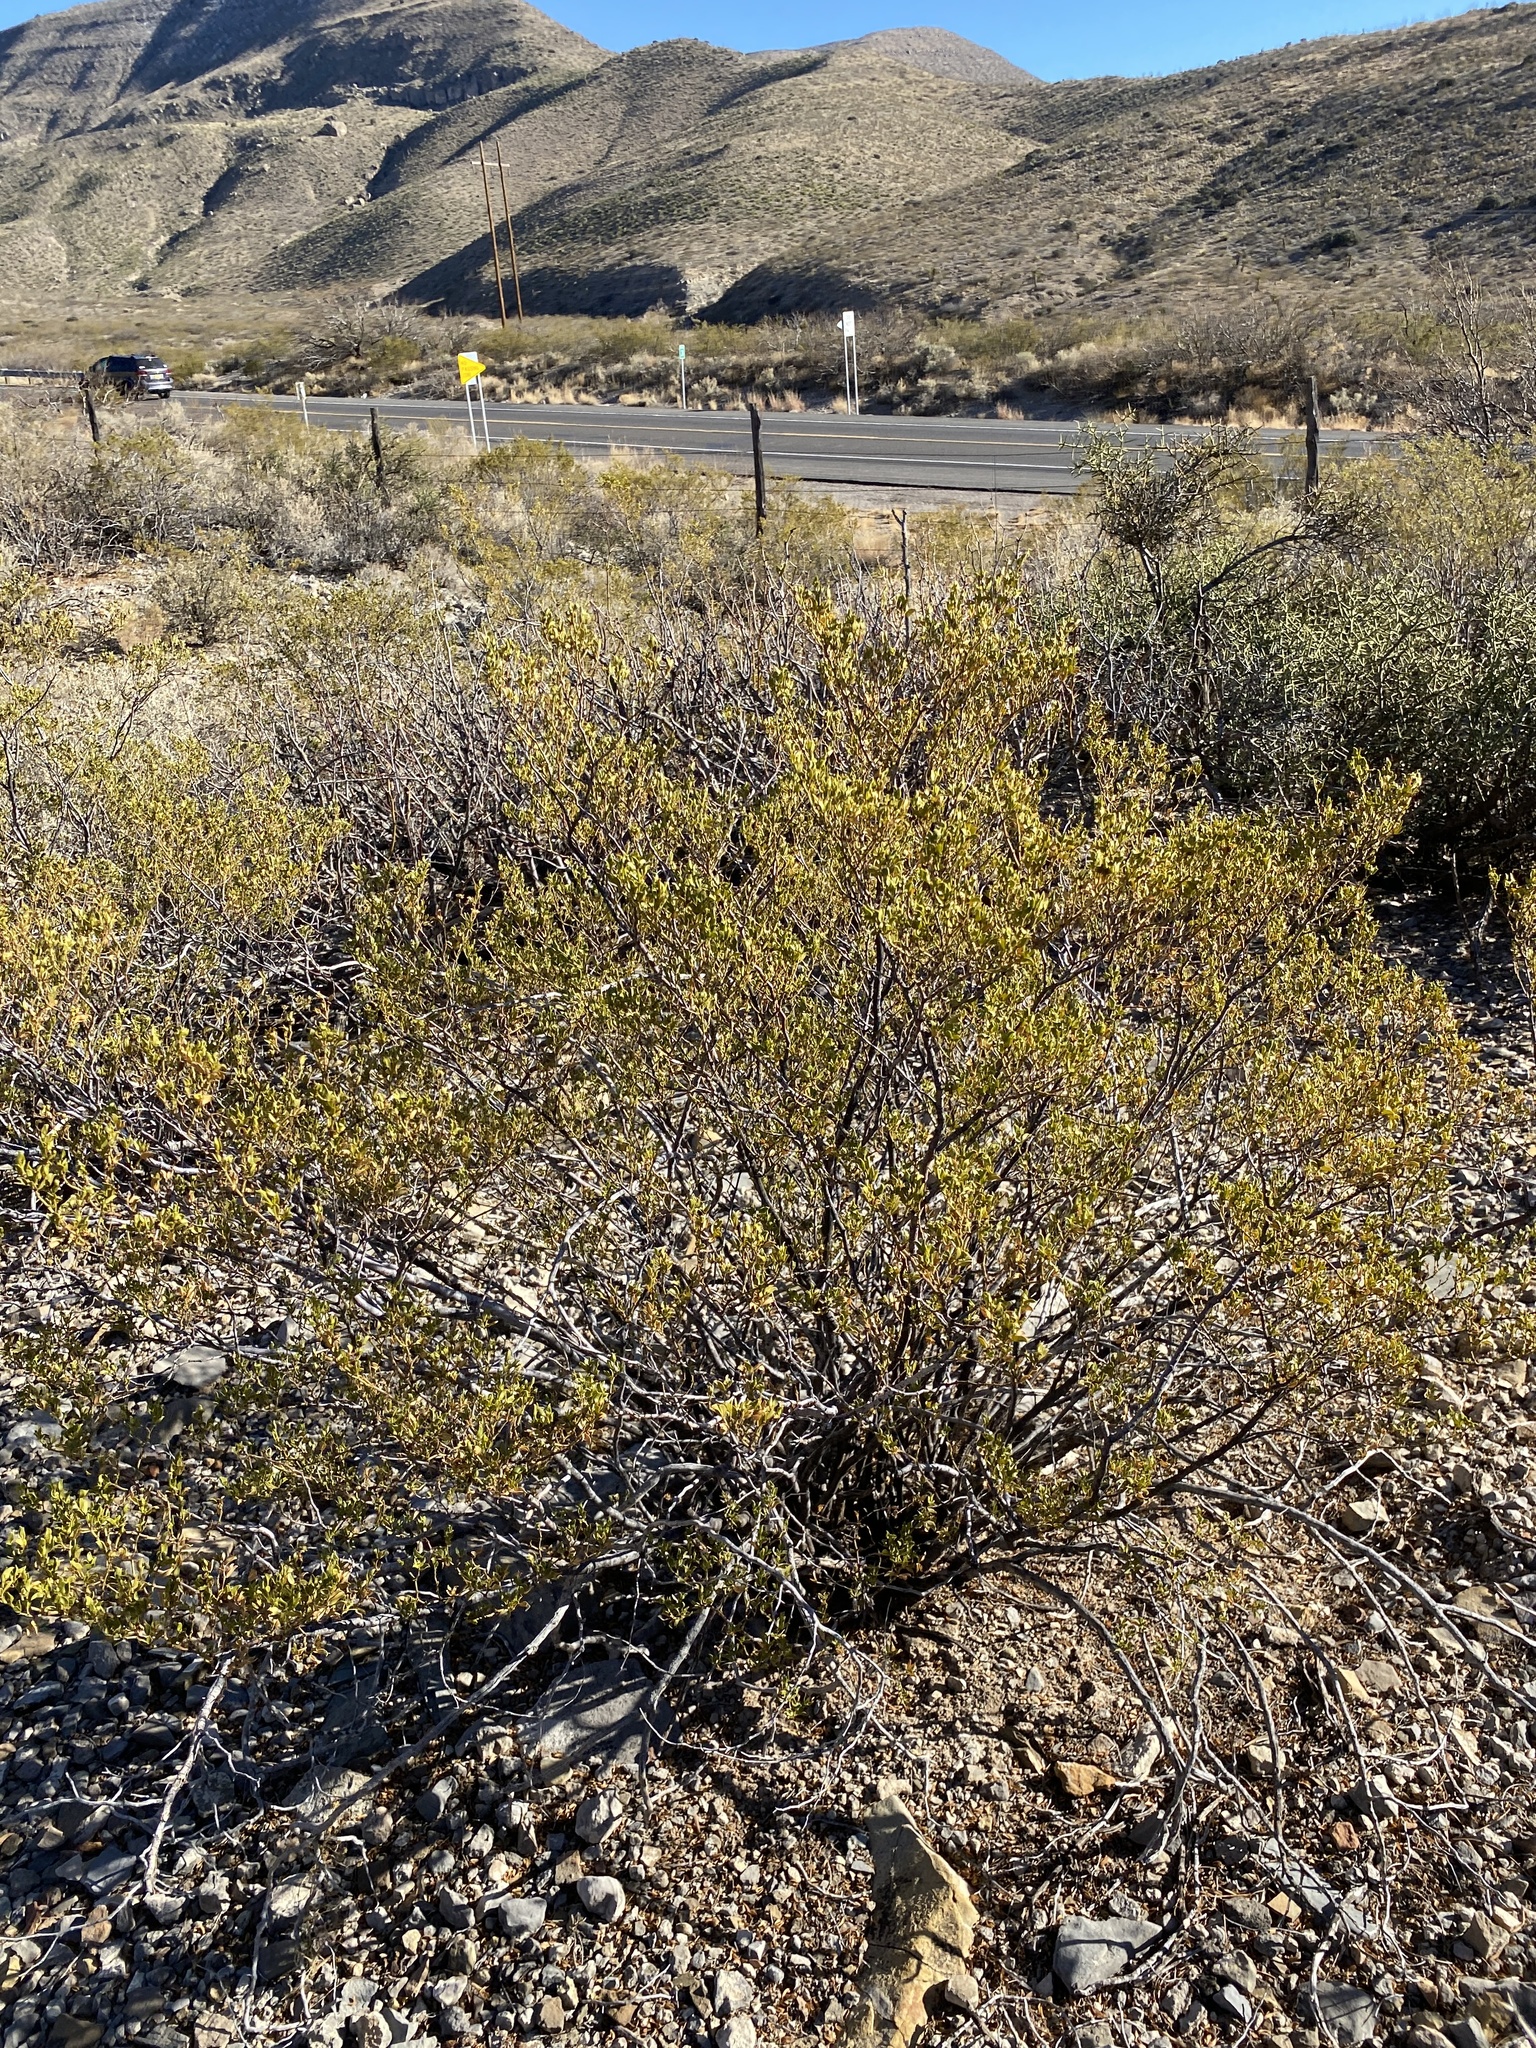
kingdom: Plantae
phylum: Tracheophyta
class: Magnoliopsida
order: Zygophyllales
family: Zygophyllaceae
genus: Larrea
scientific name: Larrea tridentata
